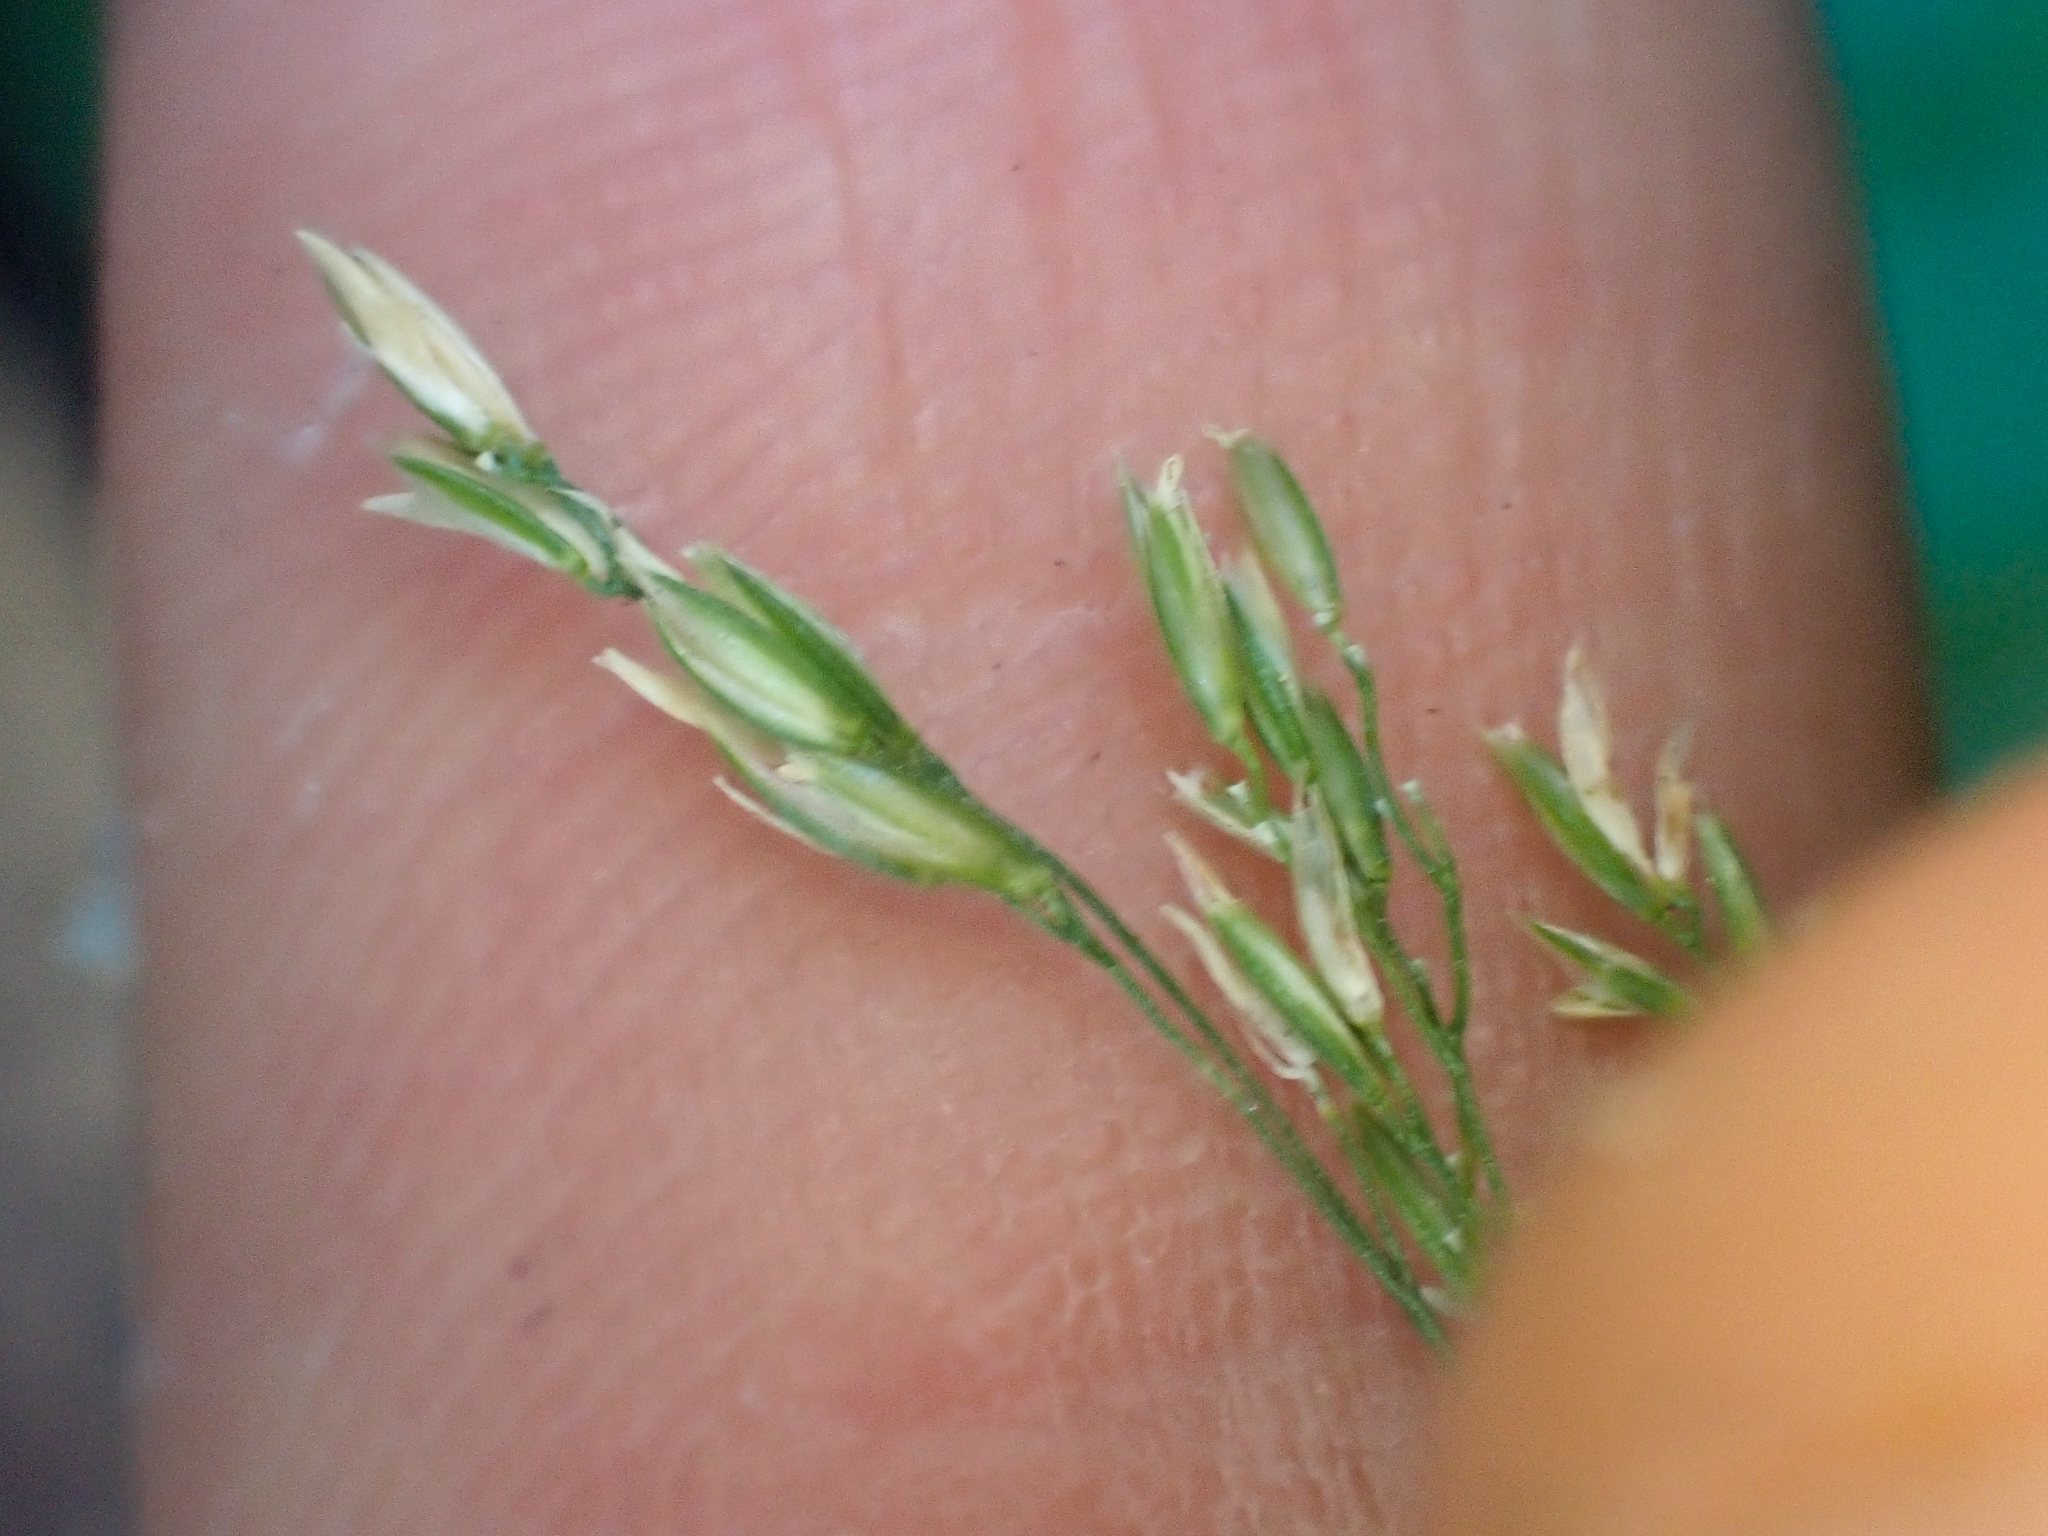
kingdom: Plantae
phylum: Tracheophyta
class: Liliopsida
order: Poales
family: Poaceae
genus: Cinna
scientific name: Cinna latifolia
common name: Drooping woodreed
